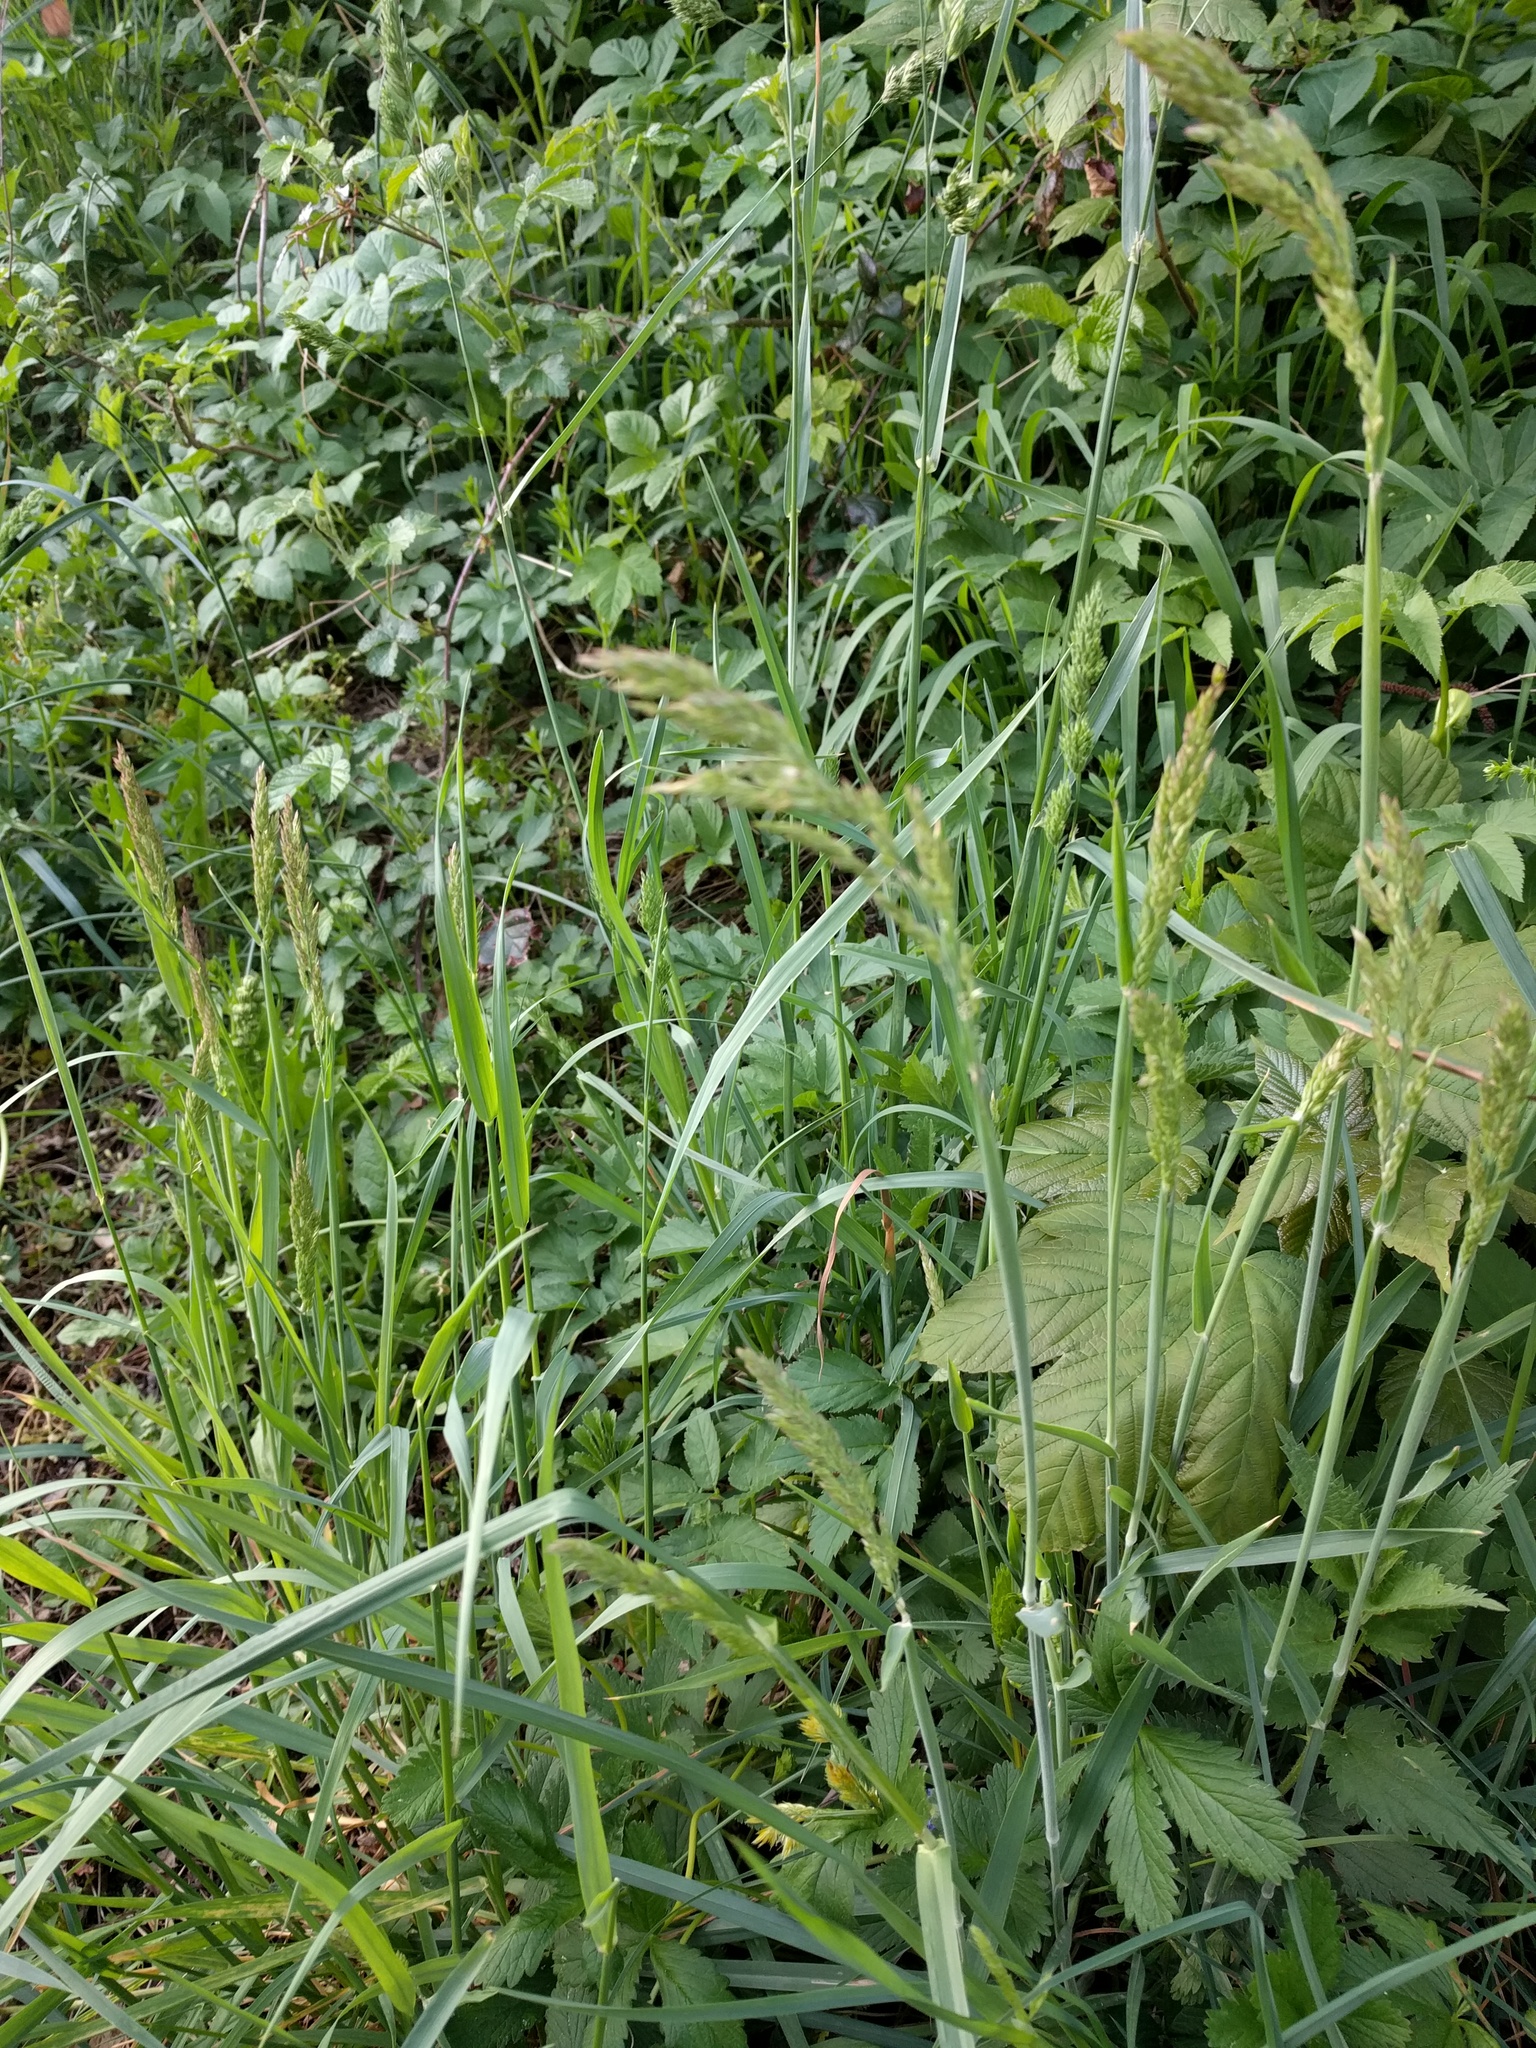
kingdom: Plantae
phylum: Tracheophyta
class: Liliopsida
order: Poales
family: Poaceae
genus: Holcus
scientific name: Holcus lanatus
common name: Yorkshire-fog
